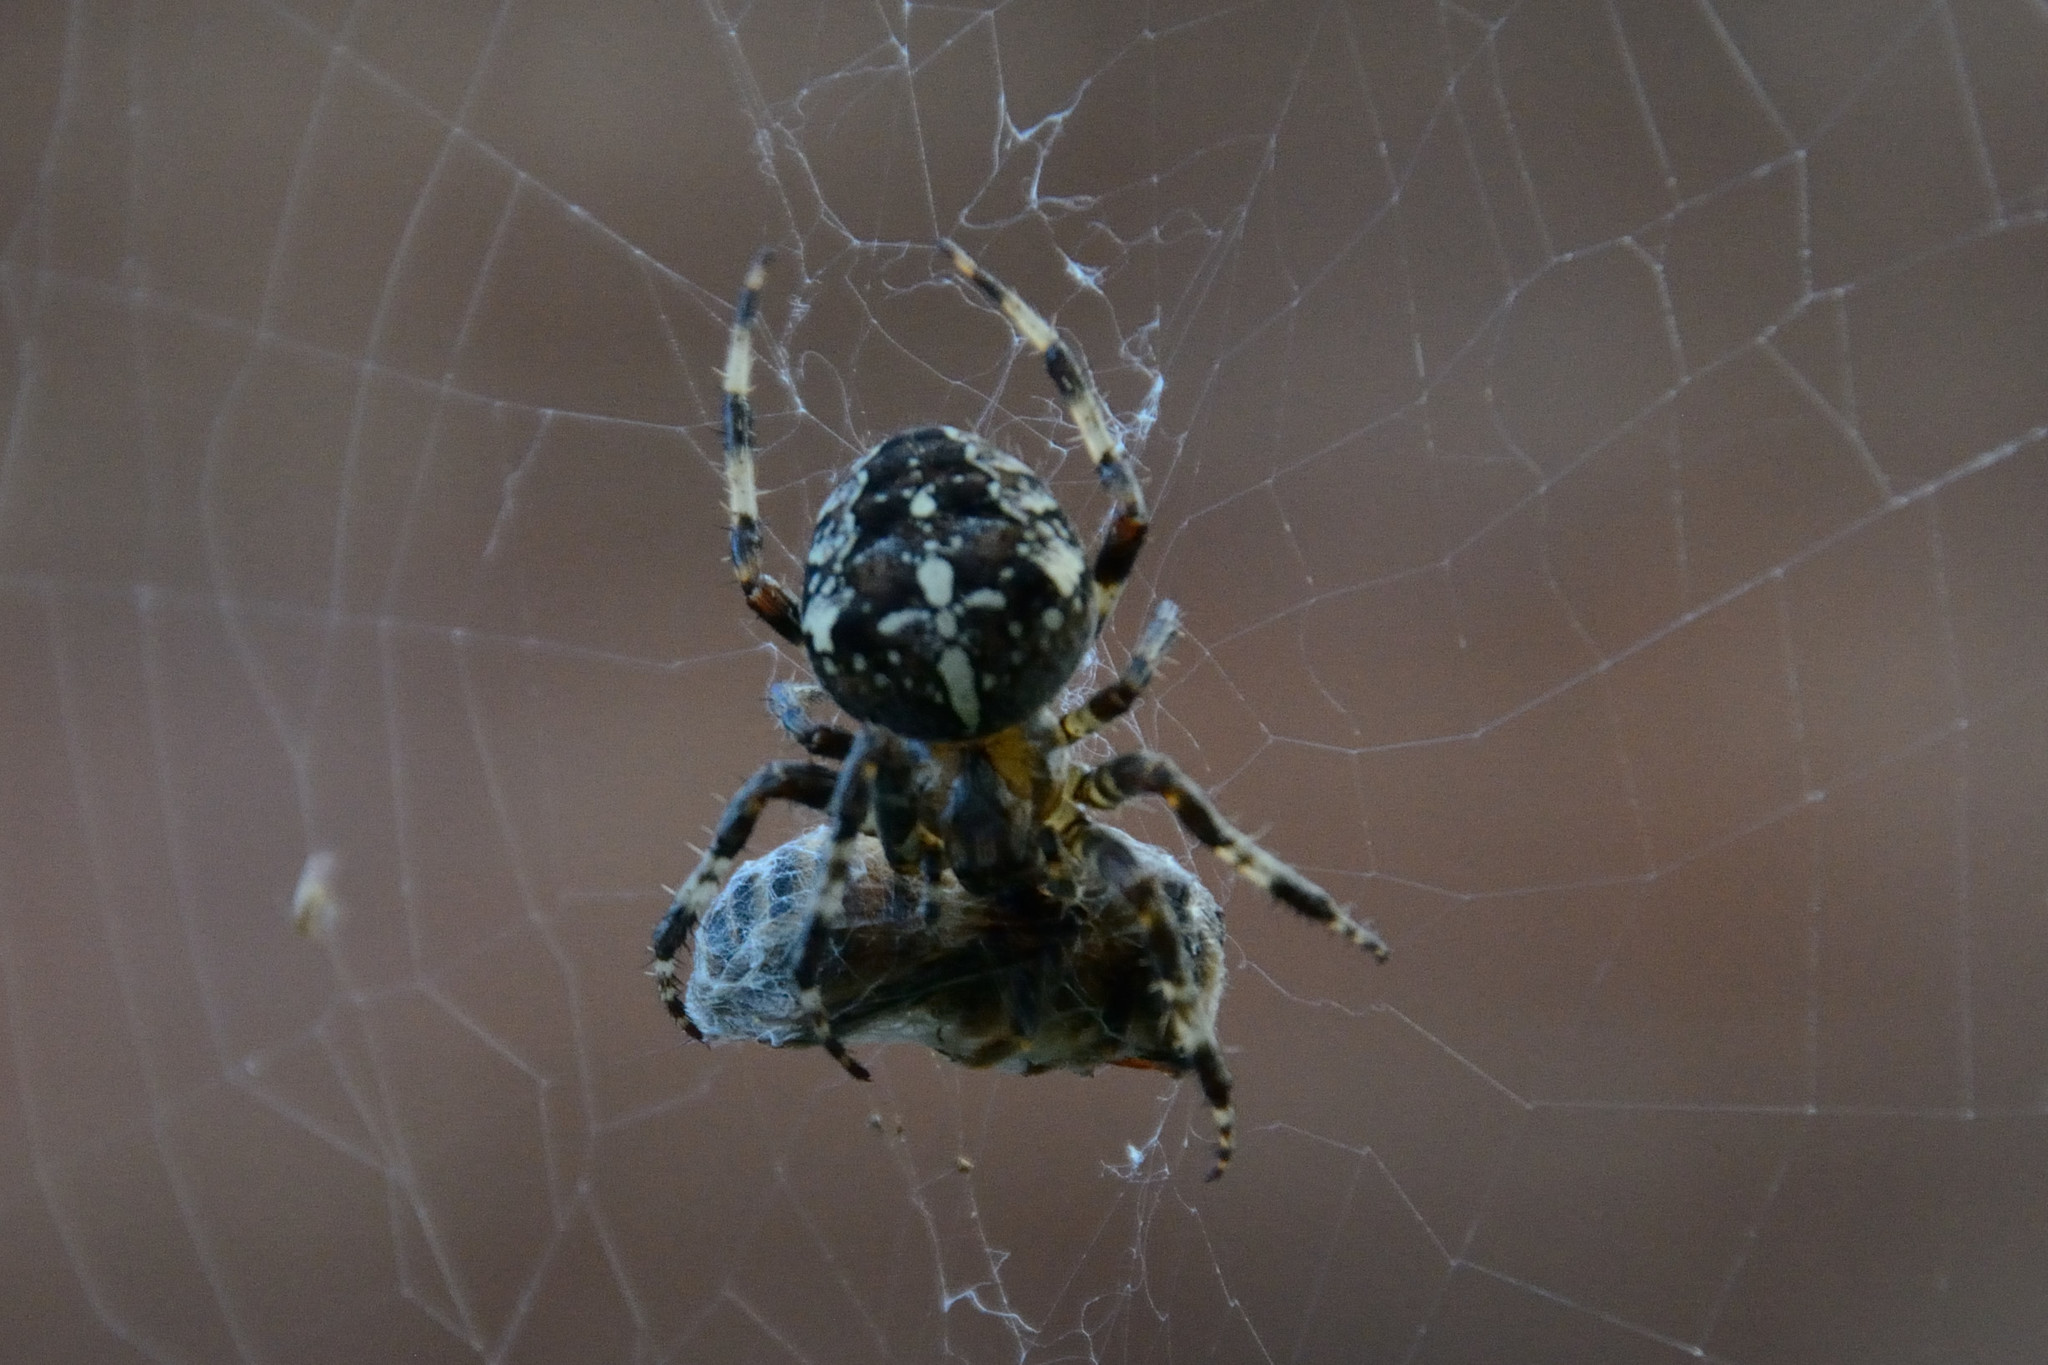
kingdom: Animalia
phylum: Arthropoda
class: Arachnida
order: Araneae
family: Araneidae
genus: Araneus
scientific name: Araneus diadematus
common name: Cross orbweaver
